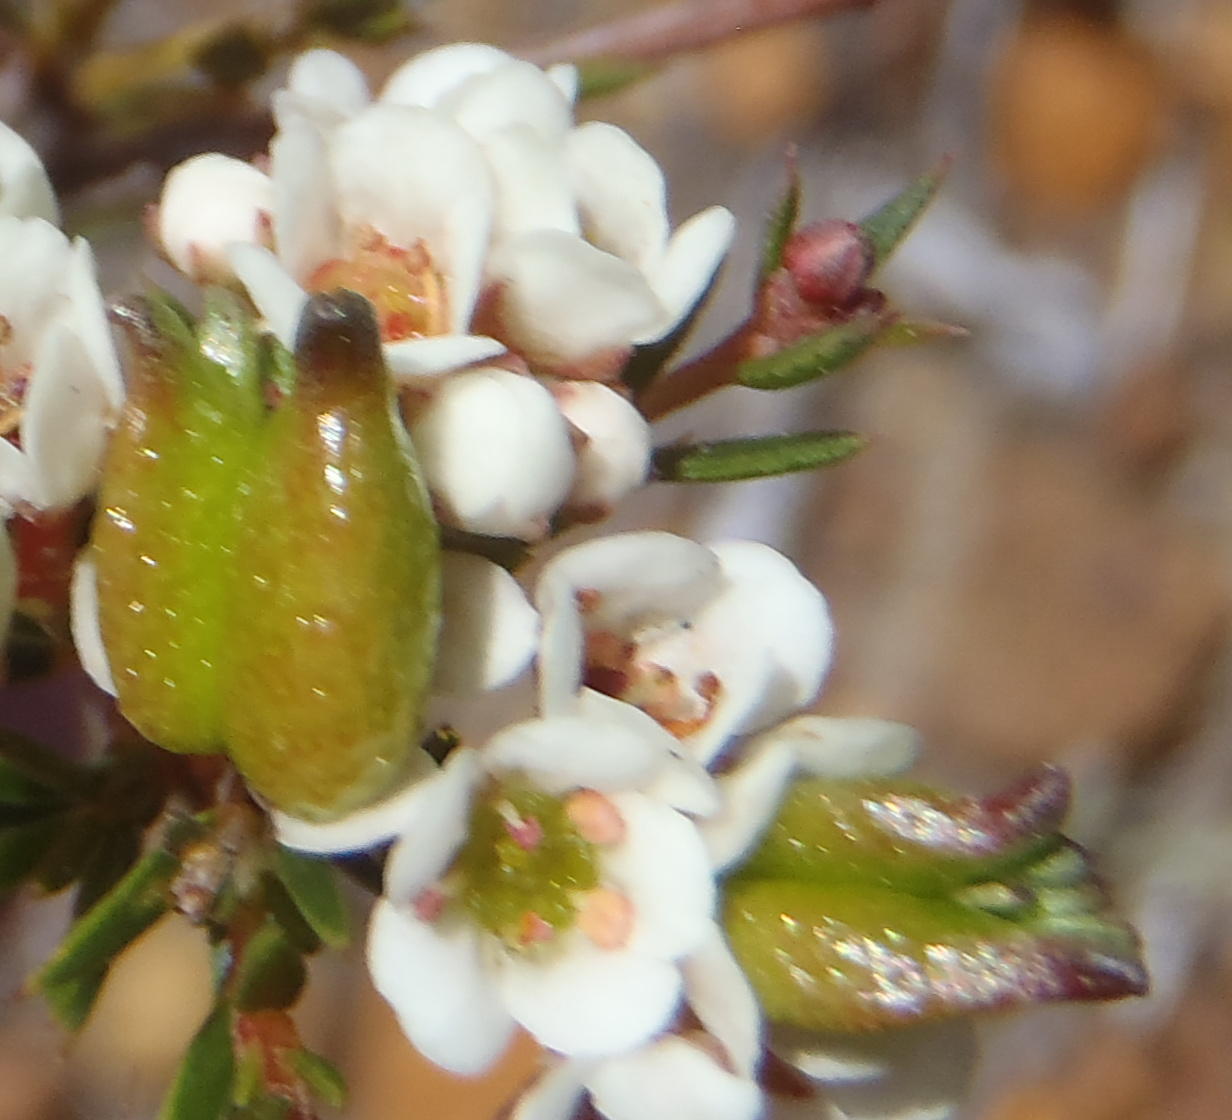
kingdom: Plantae
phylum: Tracheophyta
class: Magnoliopsida
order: Sapindales
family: Rutaceae
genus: Diosma
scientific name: Diosma hirsuta
